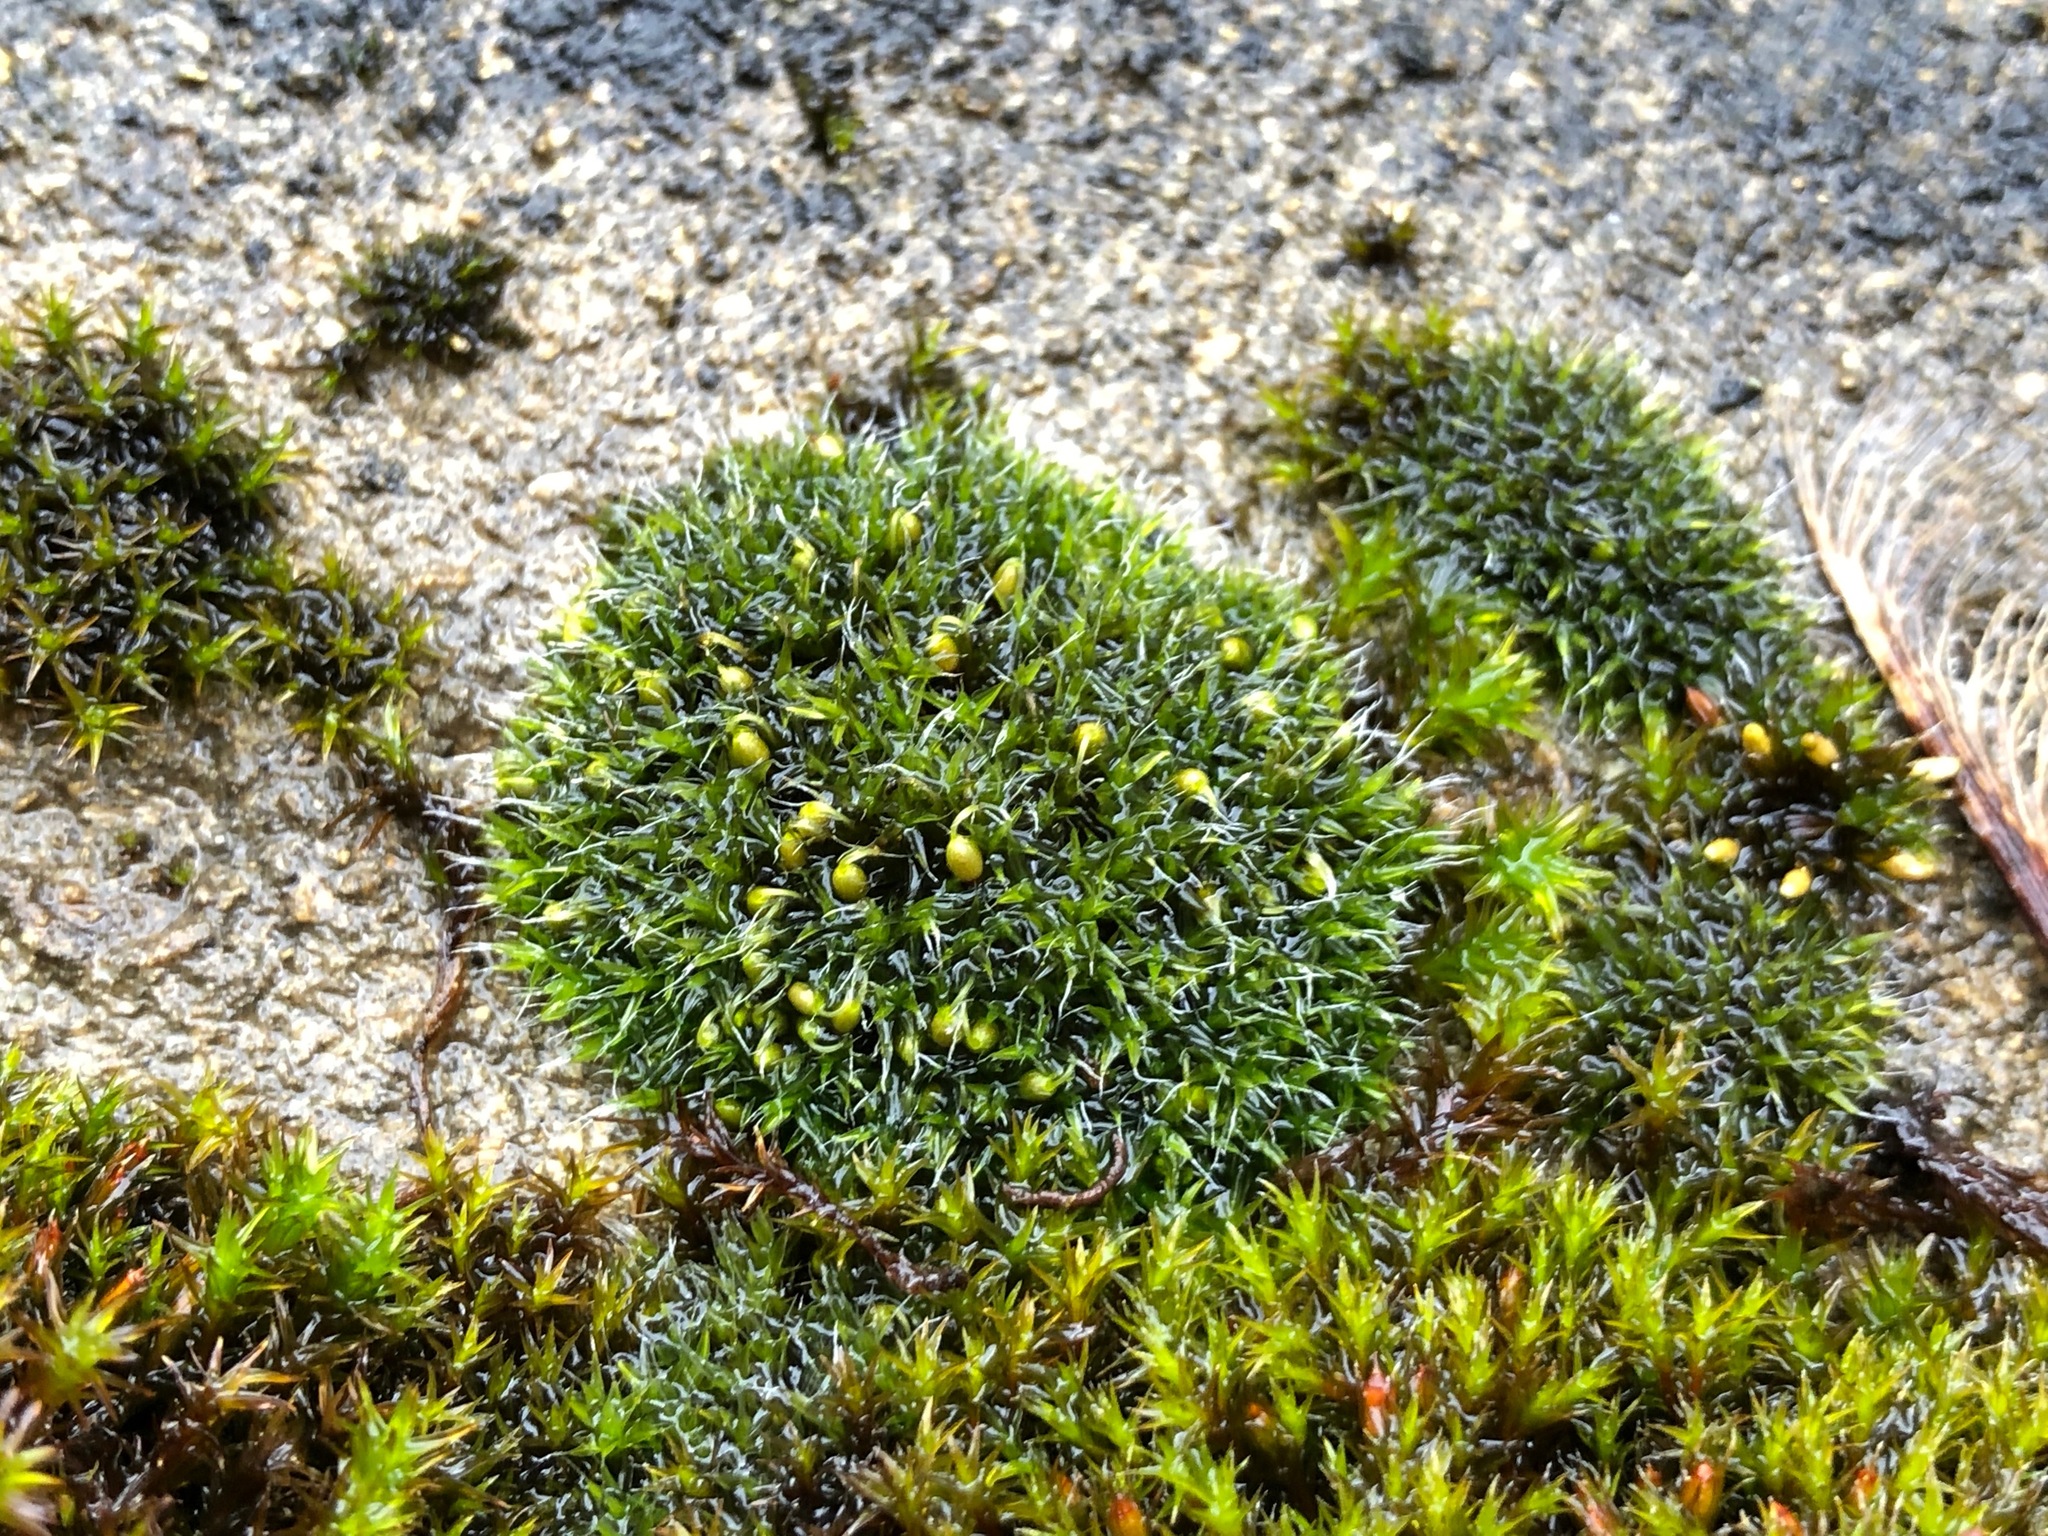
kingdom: Plantae
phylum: Bryophyta
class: Bryopsida
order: Grimmiales
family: Grimmiaceae
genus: Grimmia
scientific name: Grimmia pulvinata
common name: Grey-cushioned grimmia
